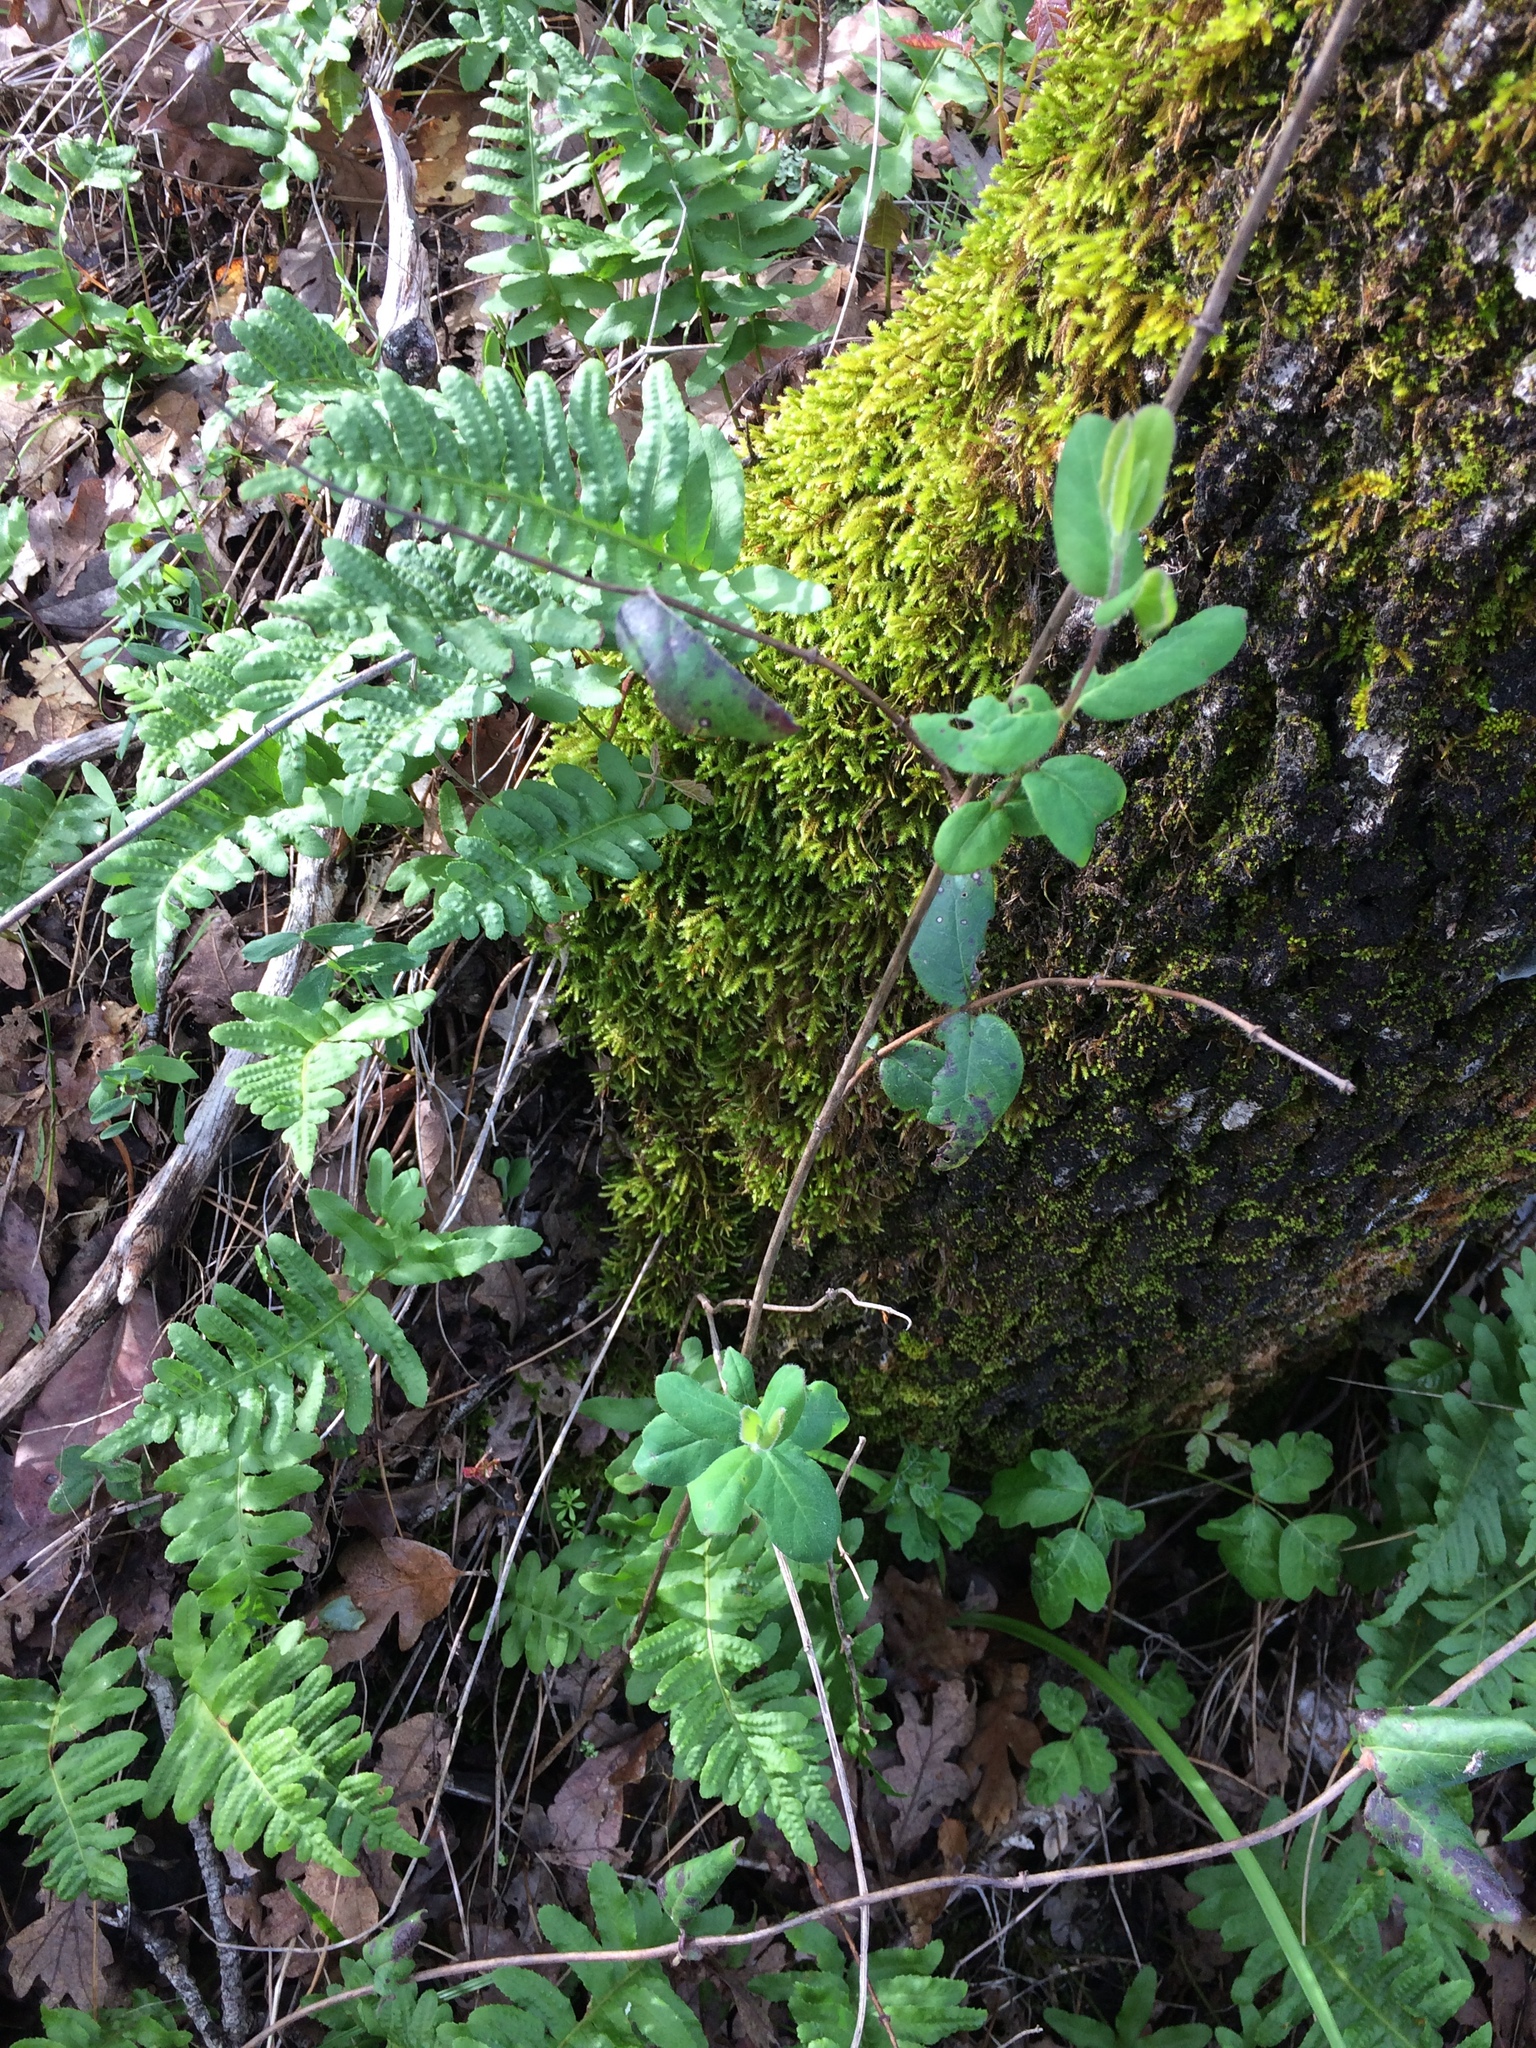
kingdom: Plantae
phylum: Tracheophyta
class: Magnoliopsida
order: Dipsacales
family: Caprifoliaceae
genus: Lonicera
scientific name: Lonicera hispidula
